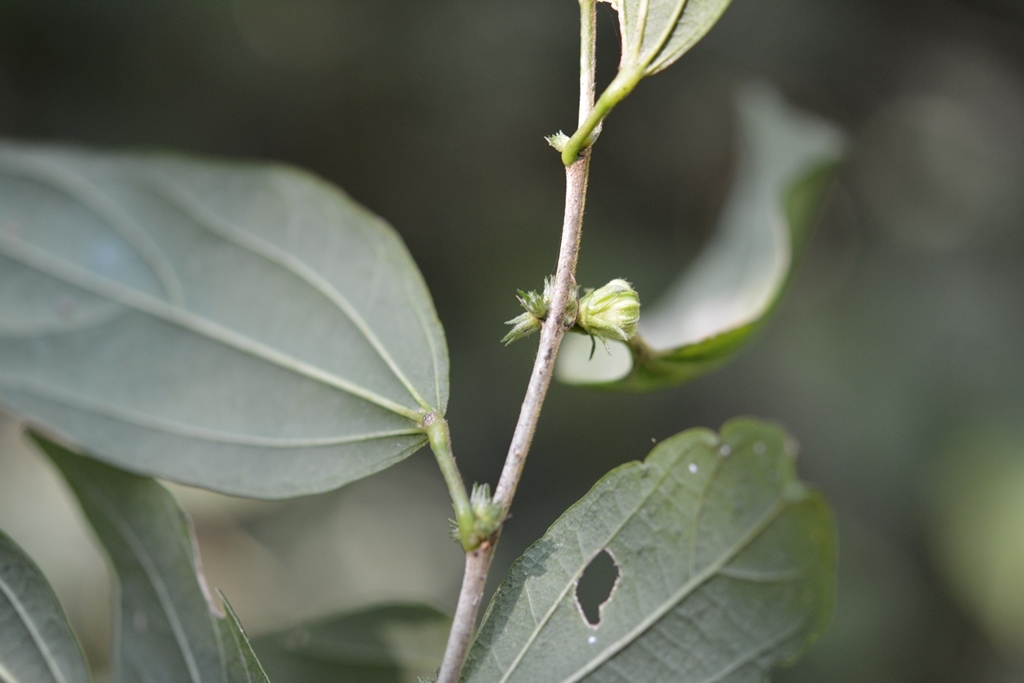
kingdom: Plantae
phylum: Tracheophyta
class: Magnoliopsida
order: Malvales
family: Malvaceae
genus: Hibiscus
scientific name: Hibiscus purpusii
